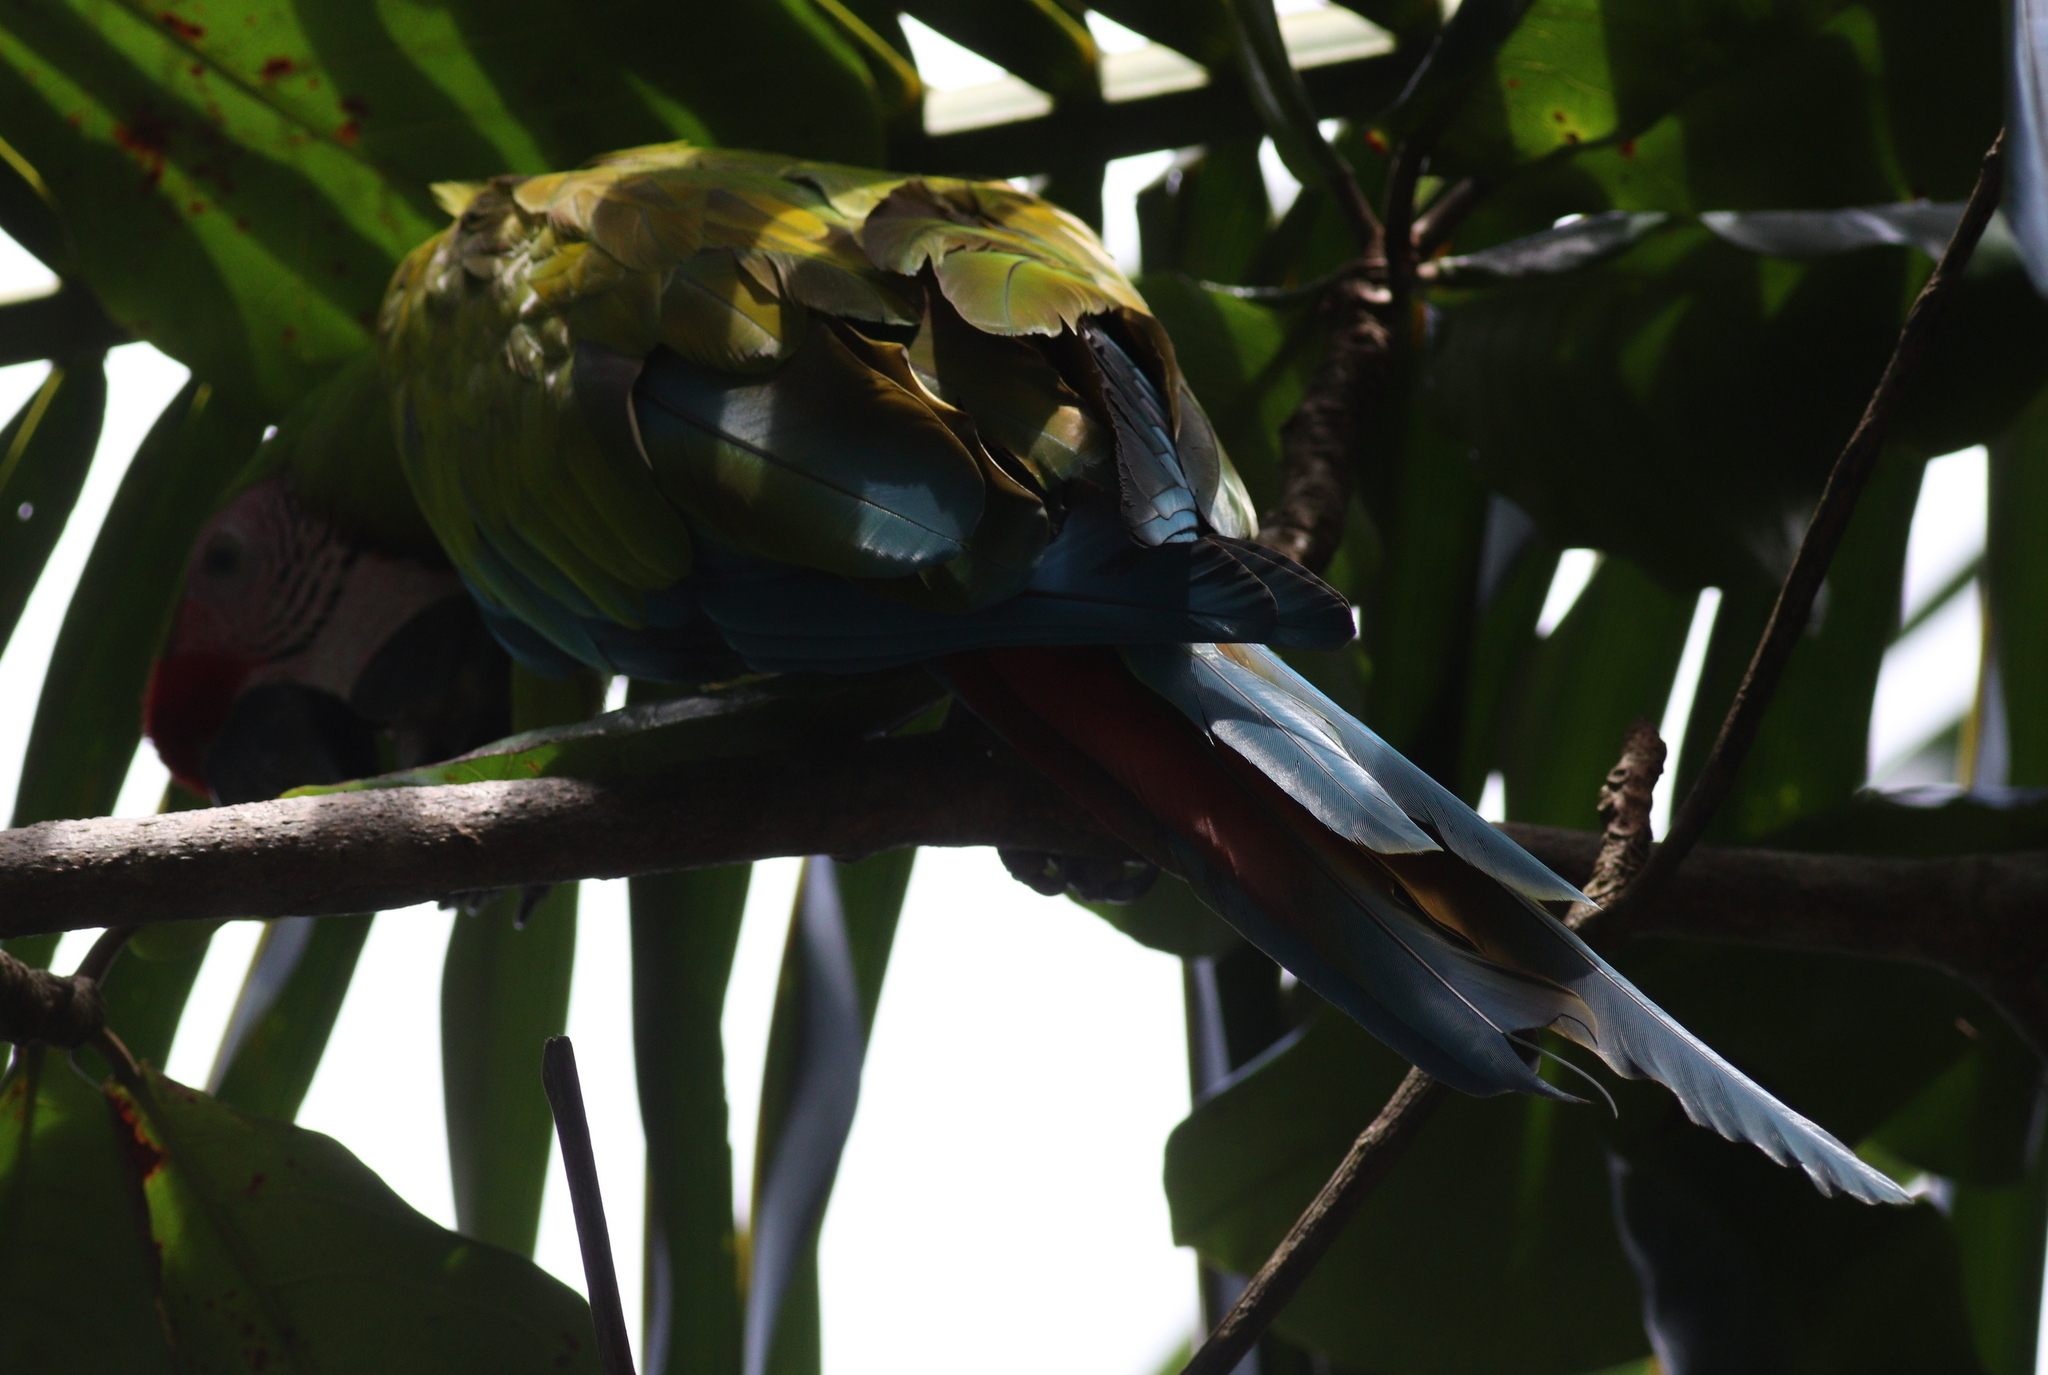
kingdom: Animalia
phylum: Chordata
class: Aves
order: Psittaciformes
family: Psittacidae
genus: Ara
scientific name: Ara ambiguus
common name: Great green macaw
